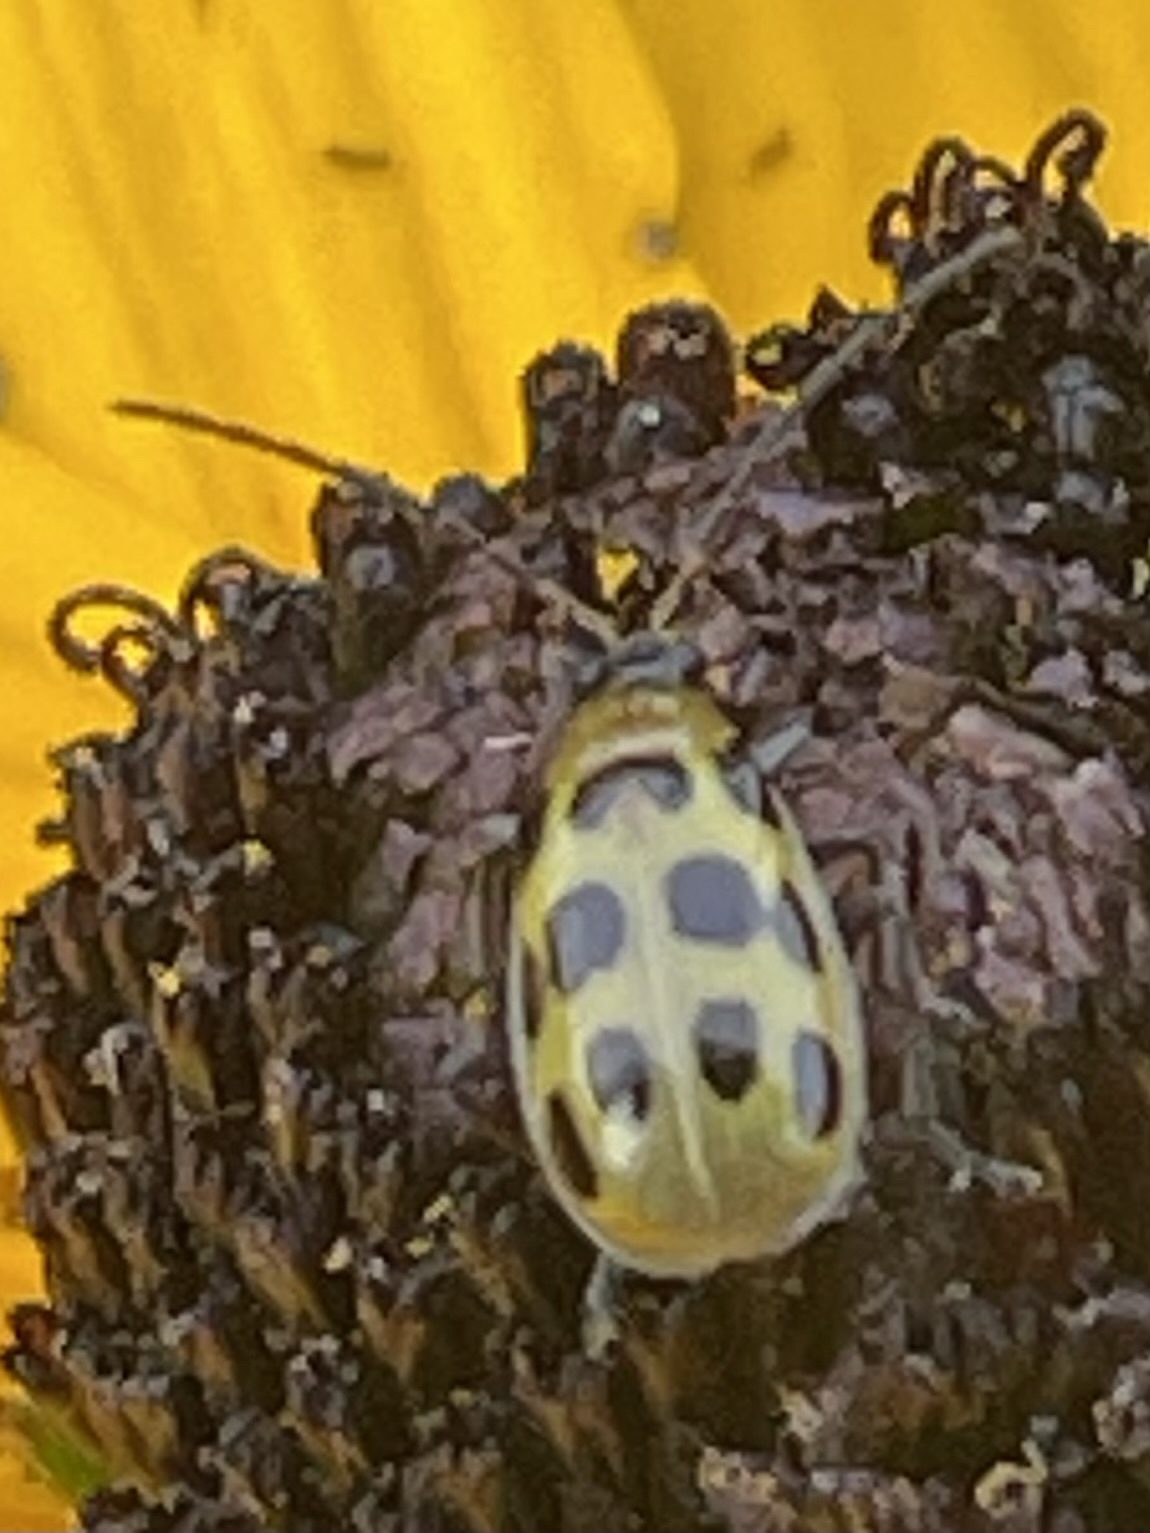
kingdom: Animalia
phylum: Arthropoda
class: Insecta
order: Coleoptera
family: Chrysomelidae
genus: Diabrotica
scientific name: Diabrotica undecimpunctata
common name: Spotted cucumber beetle
